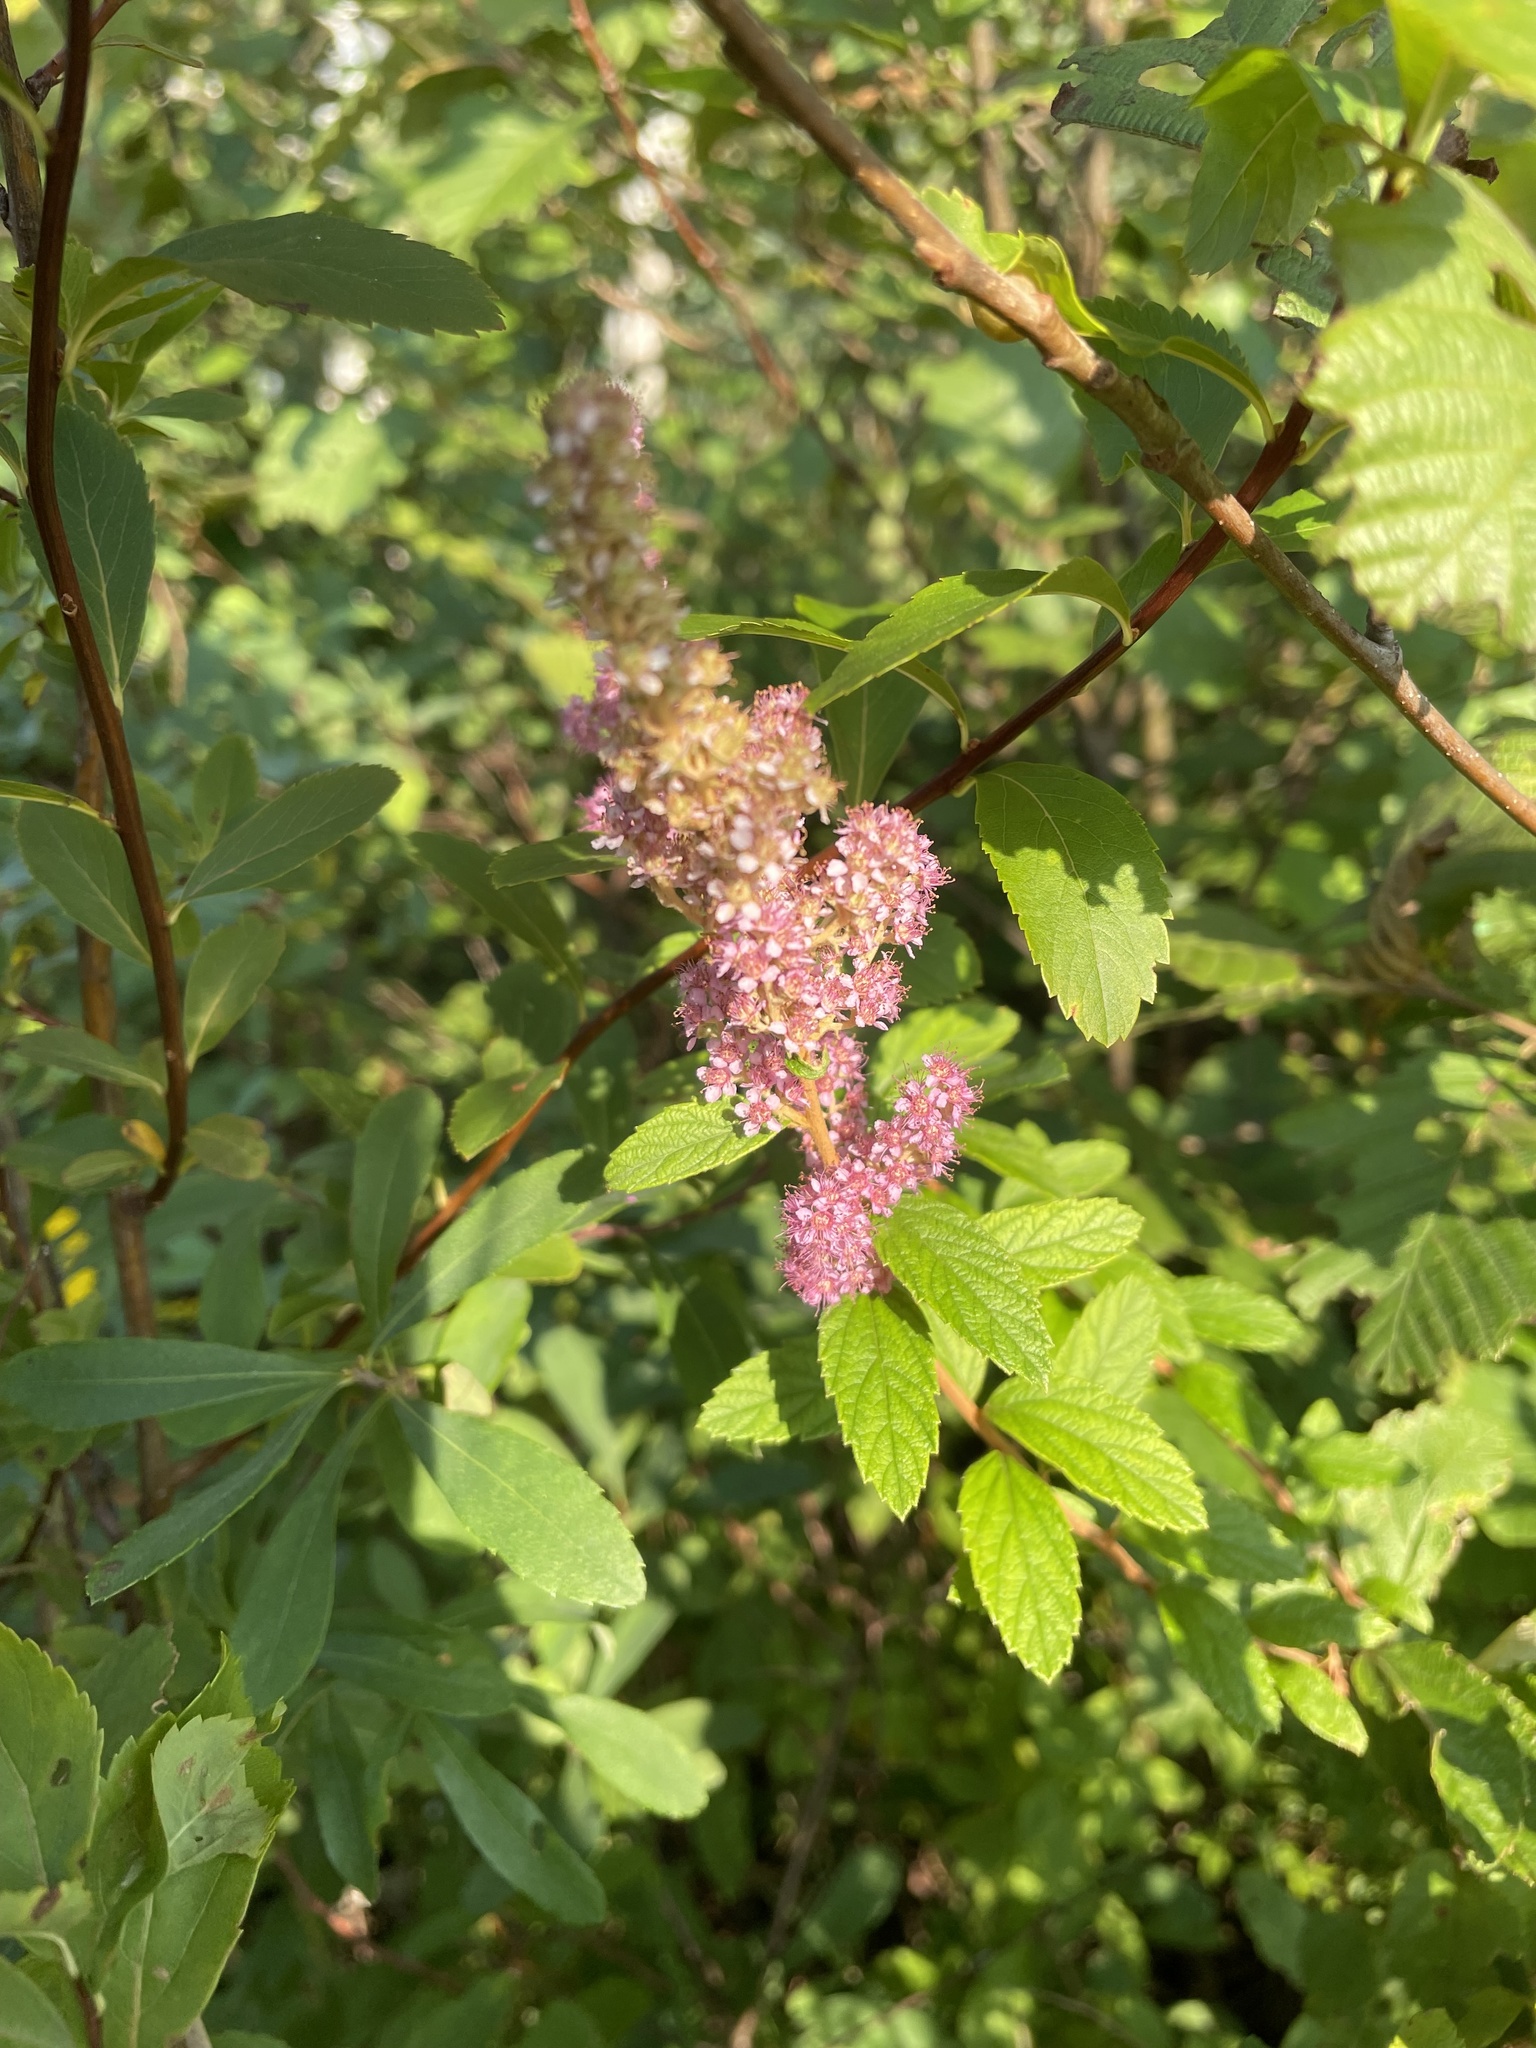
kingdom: Plantae
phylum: Tracheophyta
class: Magnoliopsida
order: Rosales
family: Rosaceae
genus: Spiraea
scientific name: Spiraea tomentosa
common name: Hardhack
